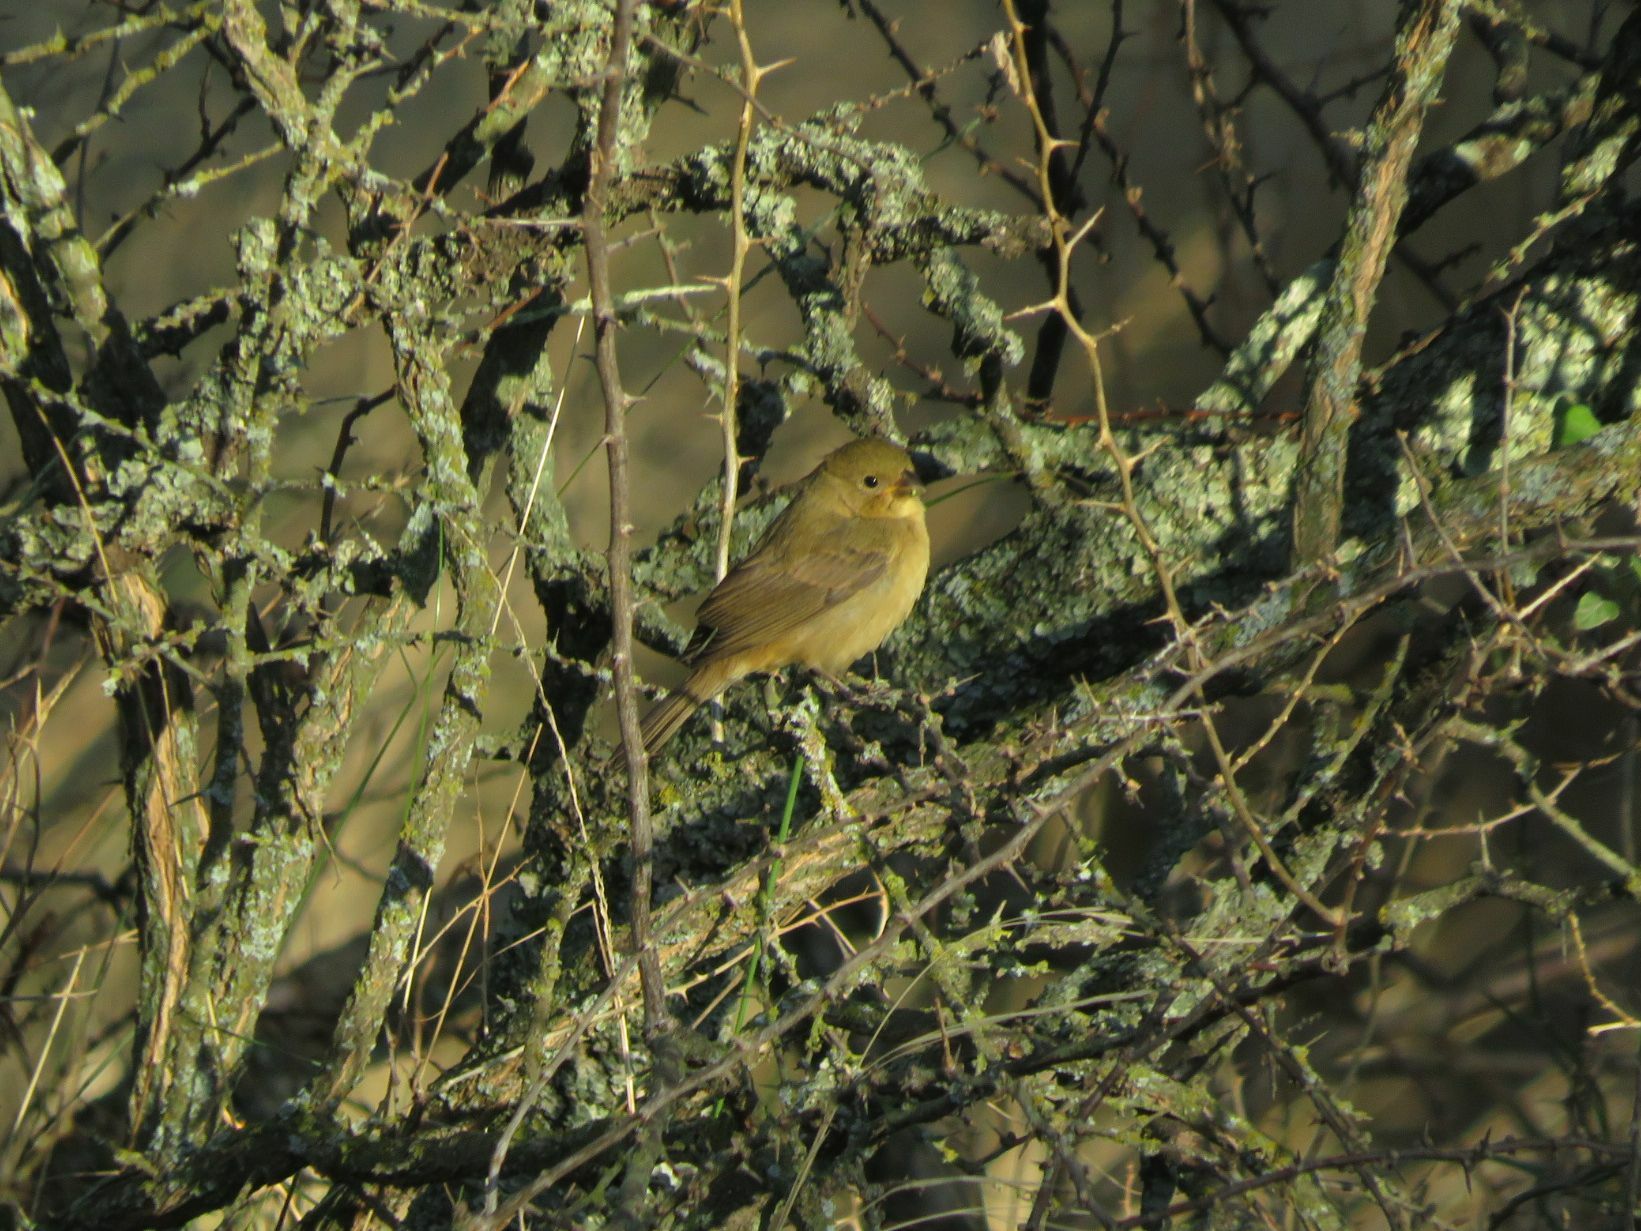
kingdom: Animalia
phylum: Chordata
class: Aves
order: Passeriformes
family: Thraupidae
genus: Sporophila
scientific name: Sporophila caerulescens
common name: Double-collared seedeater
